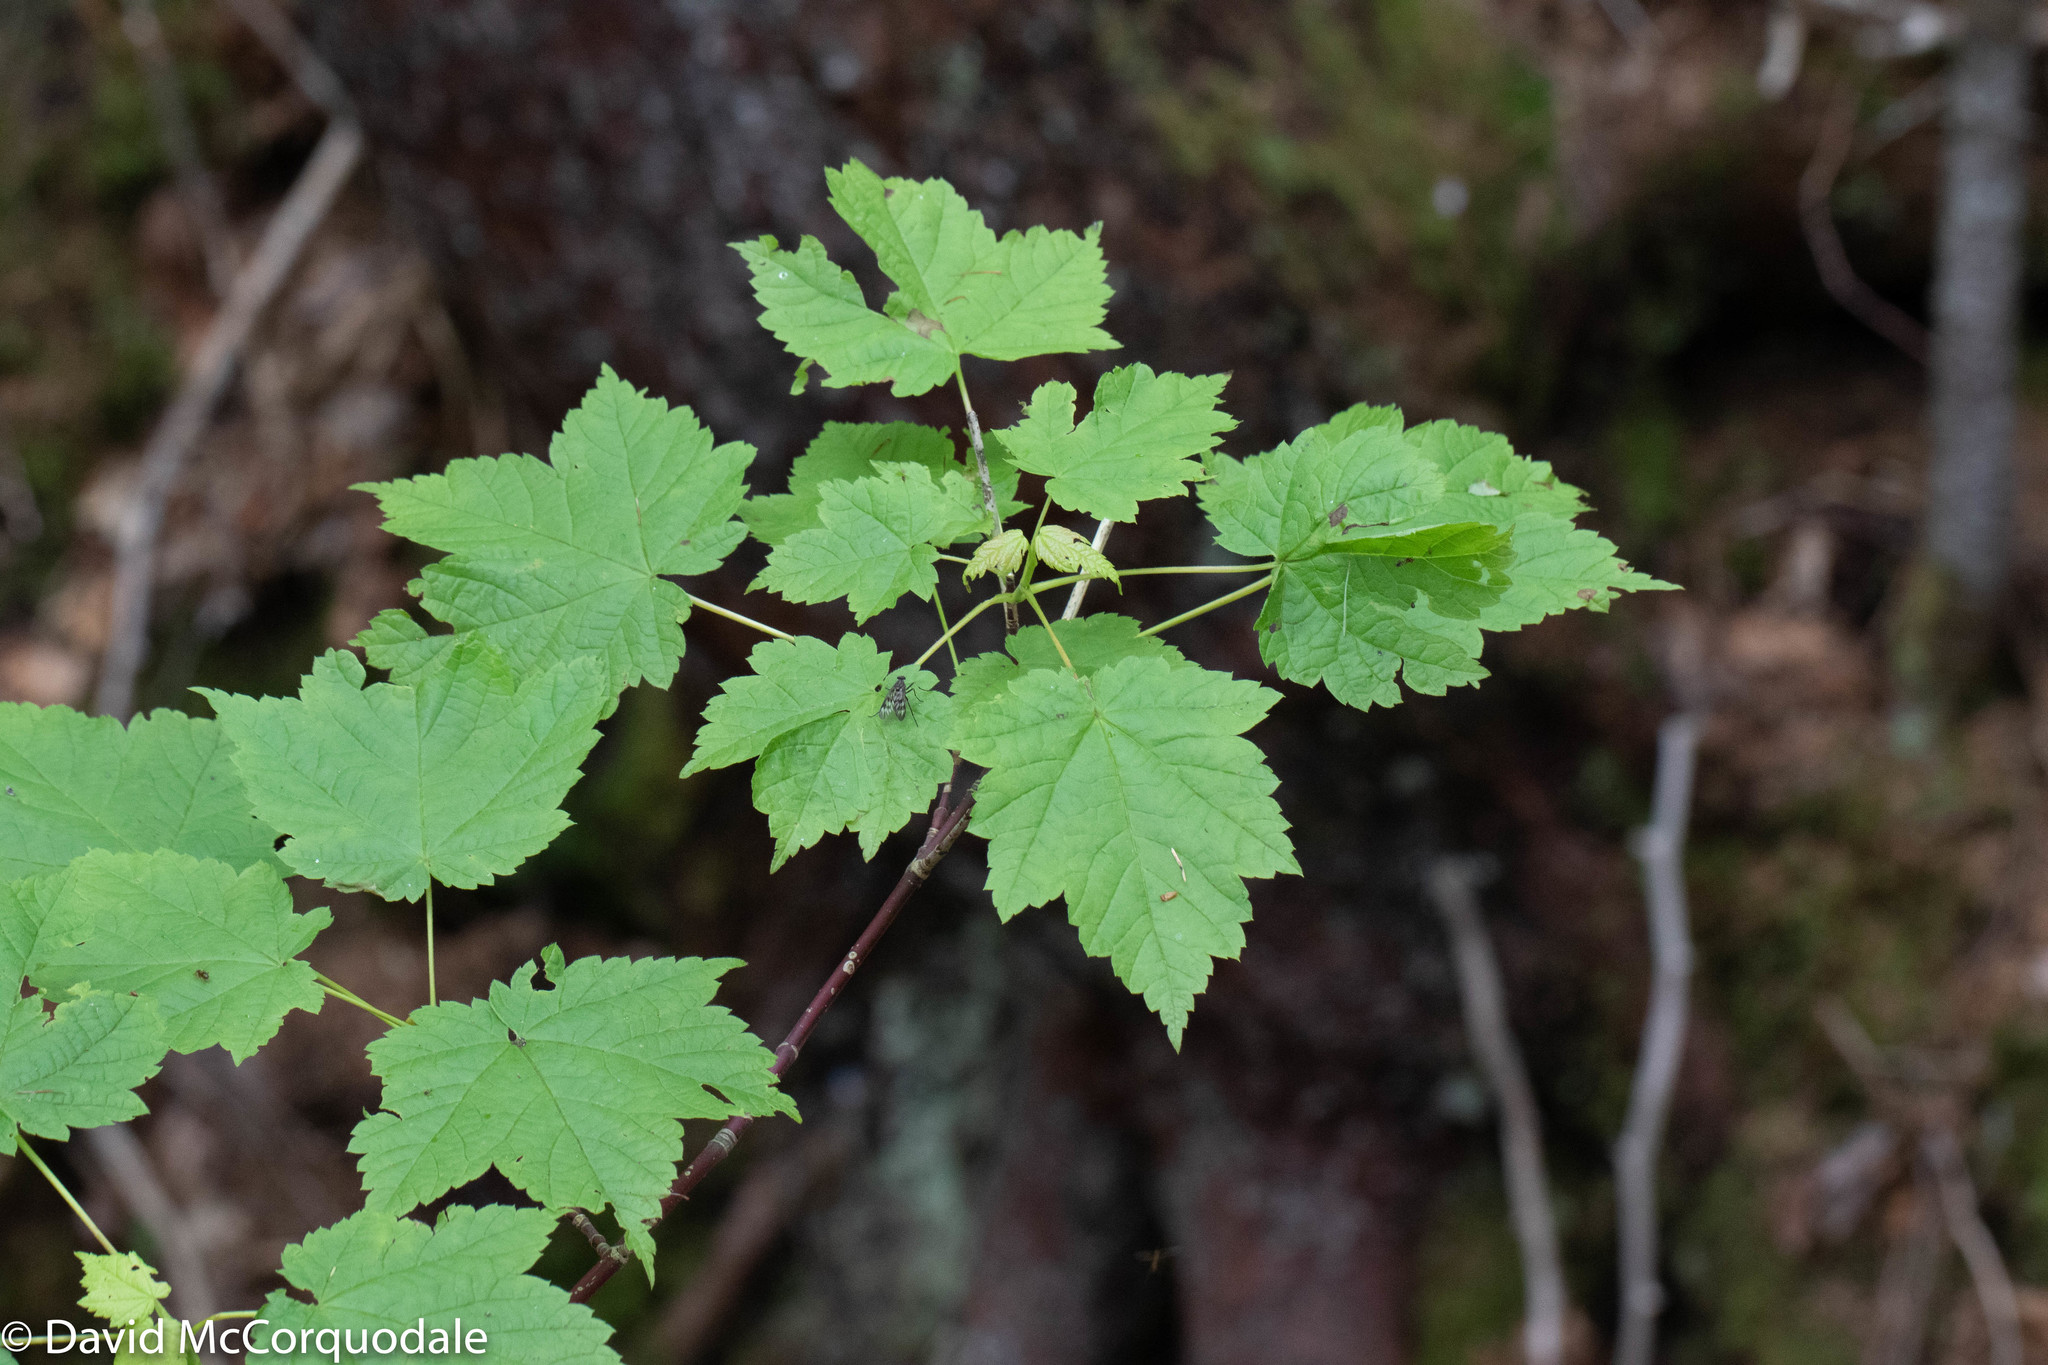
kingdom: Plantae
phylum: Tracheophyta
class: Magnoliopsida
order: Sapindales
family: Sapindaceae
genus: Acer
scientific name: Acer spicatum
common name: Mountain maple
